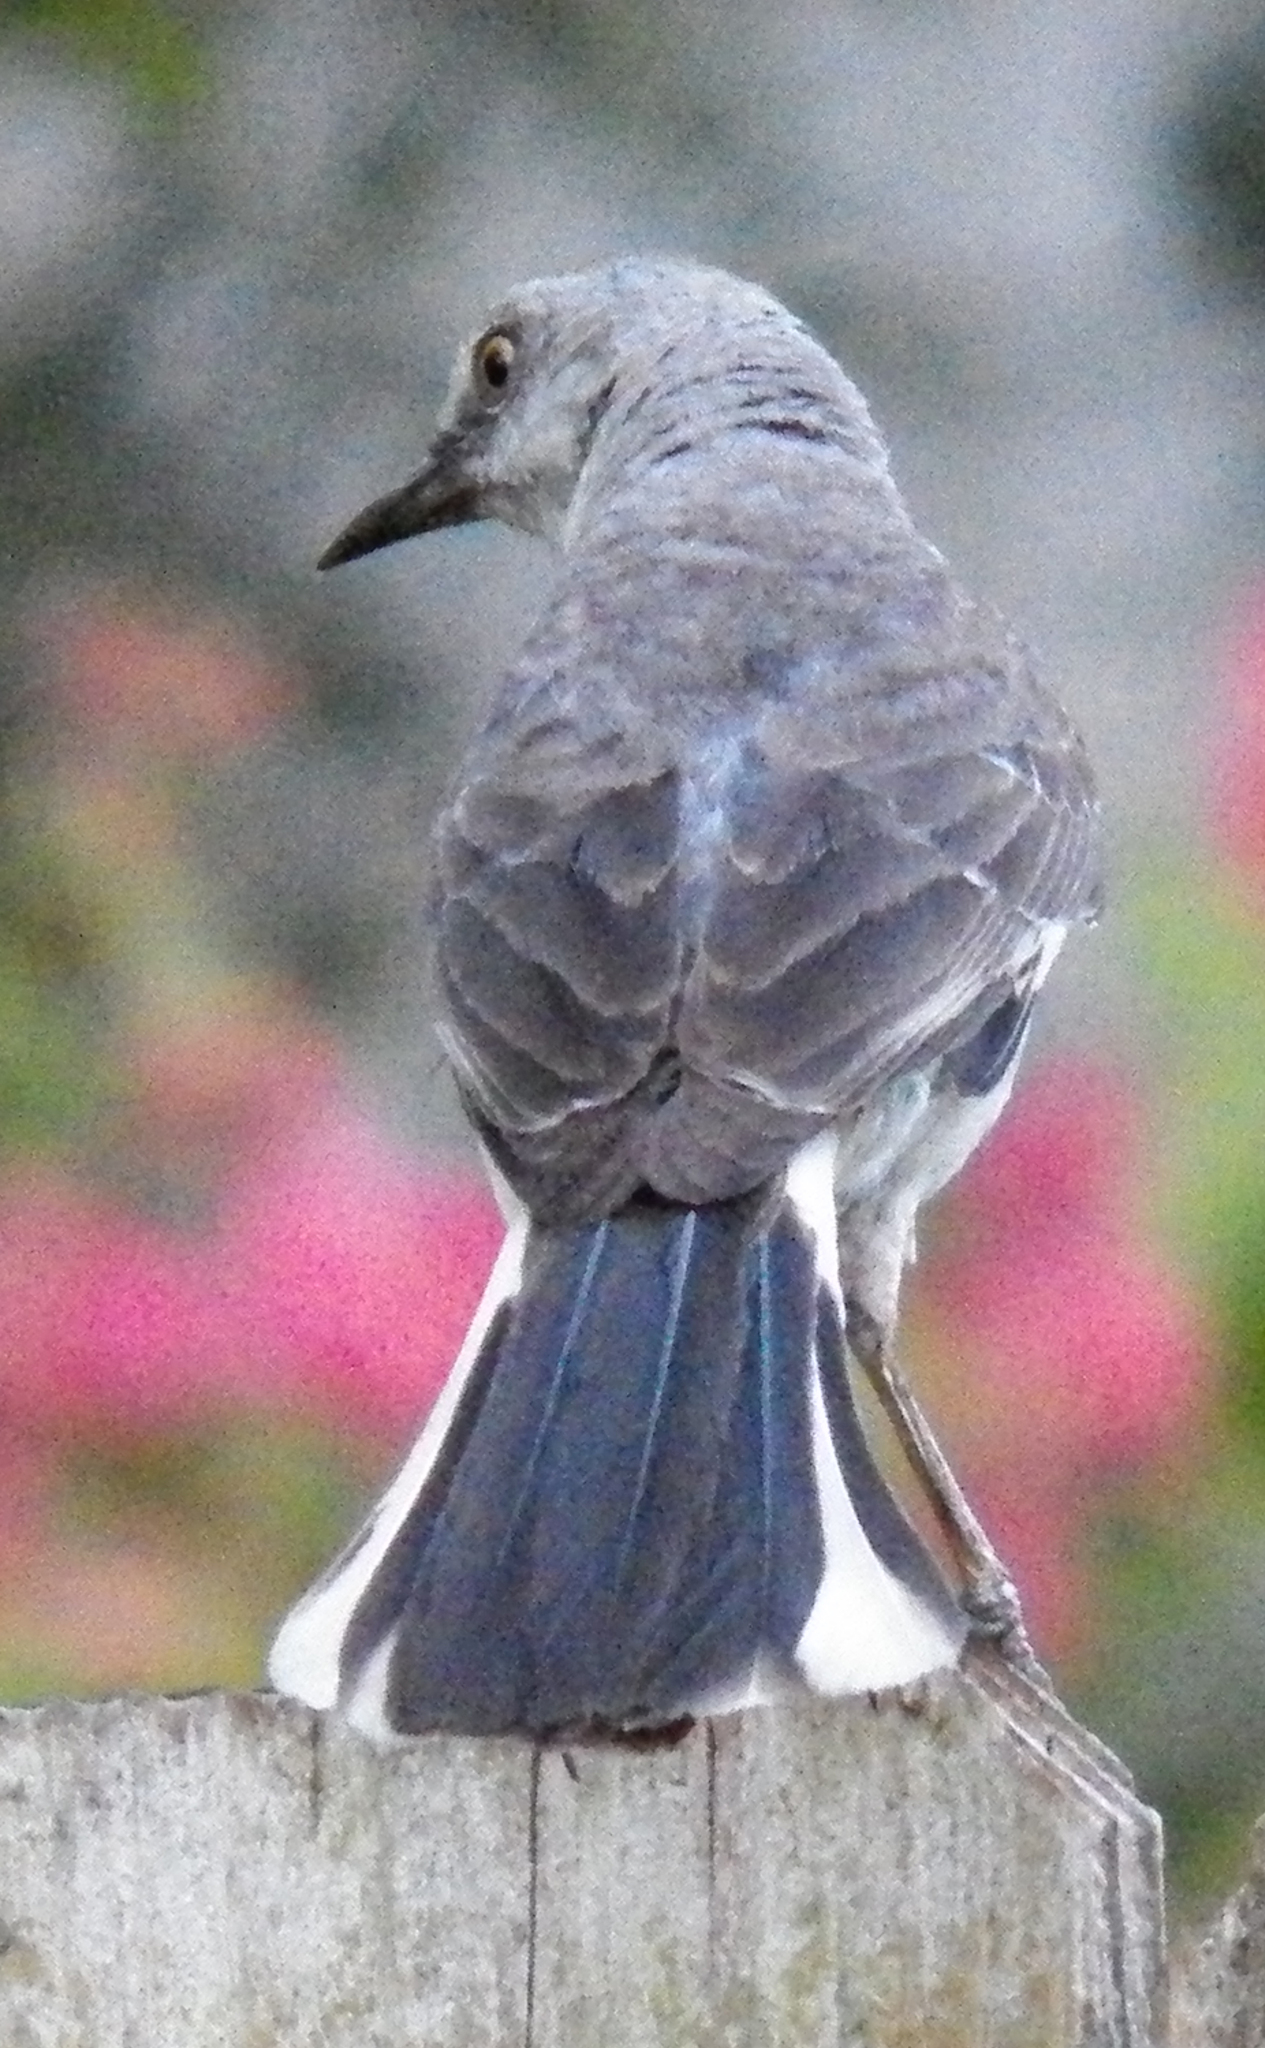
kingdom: Animalia
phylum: Chordata
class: Aves
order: Passeriformes
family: Mimidae
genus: Mimus
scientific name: Mimus polyglottos
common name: Northern mockingbird
